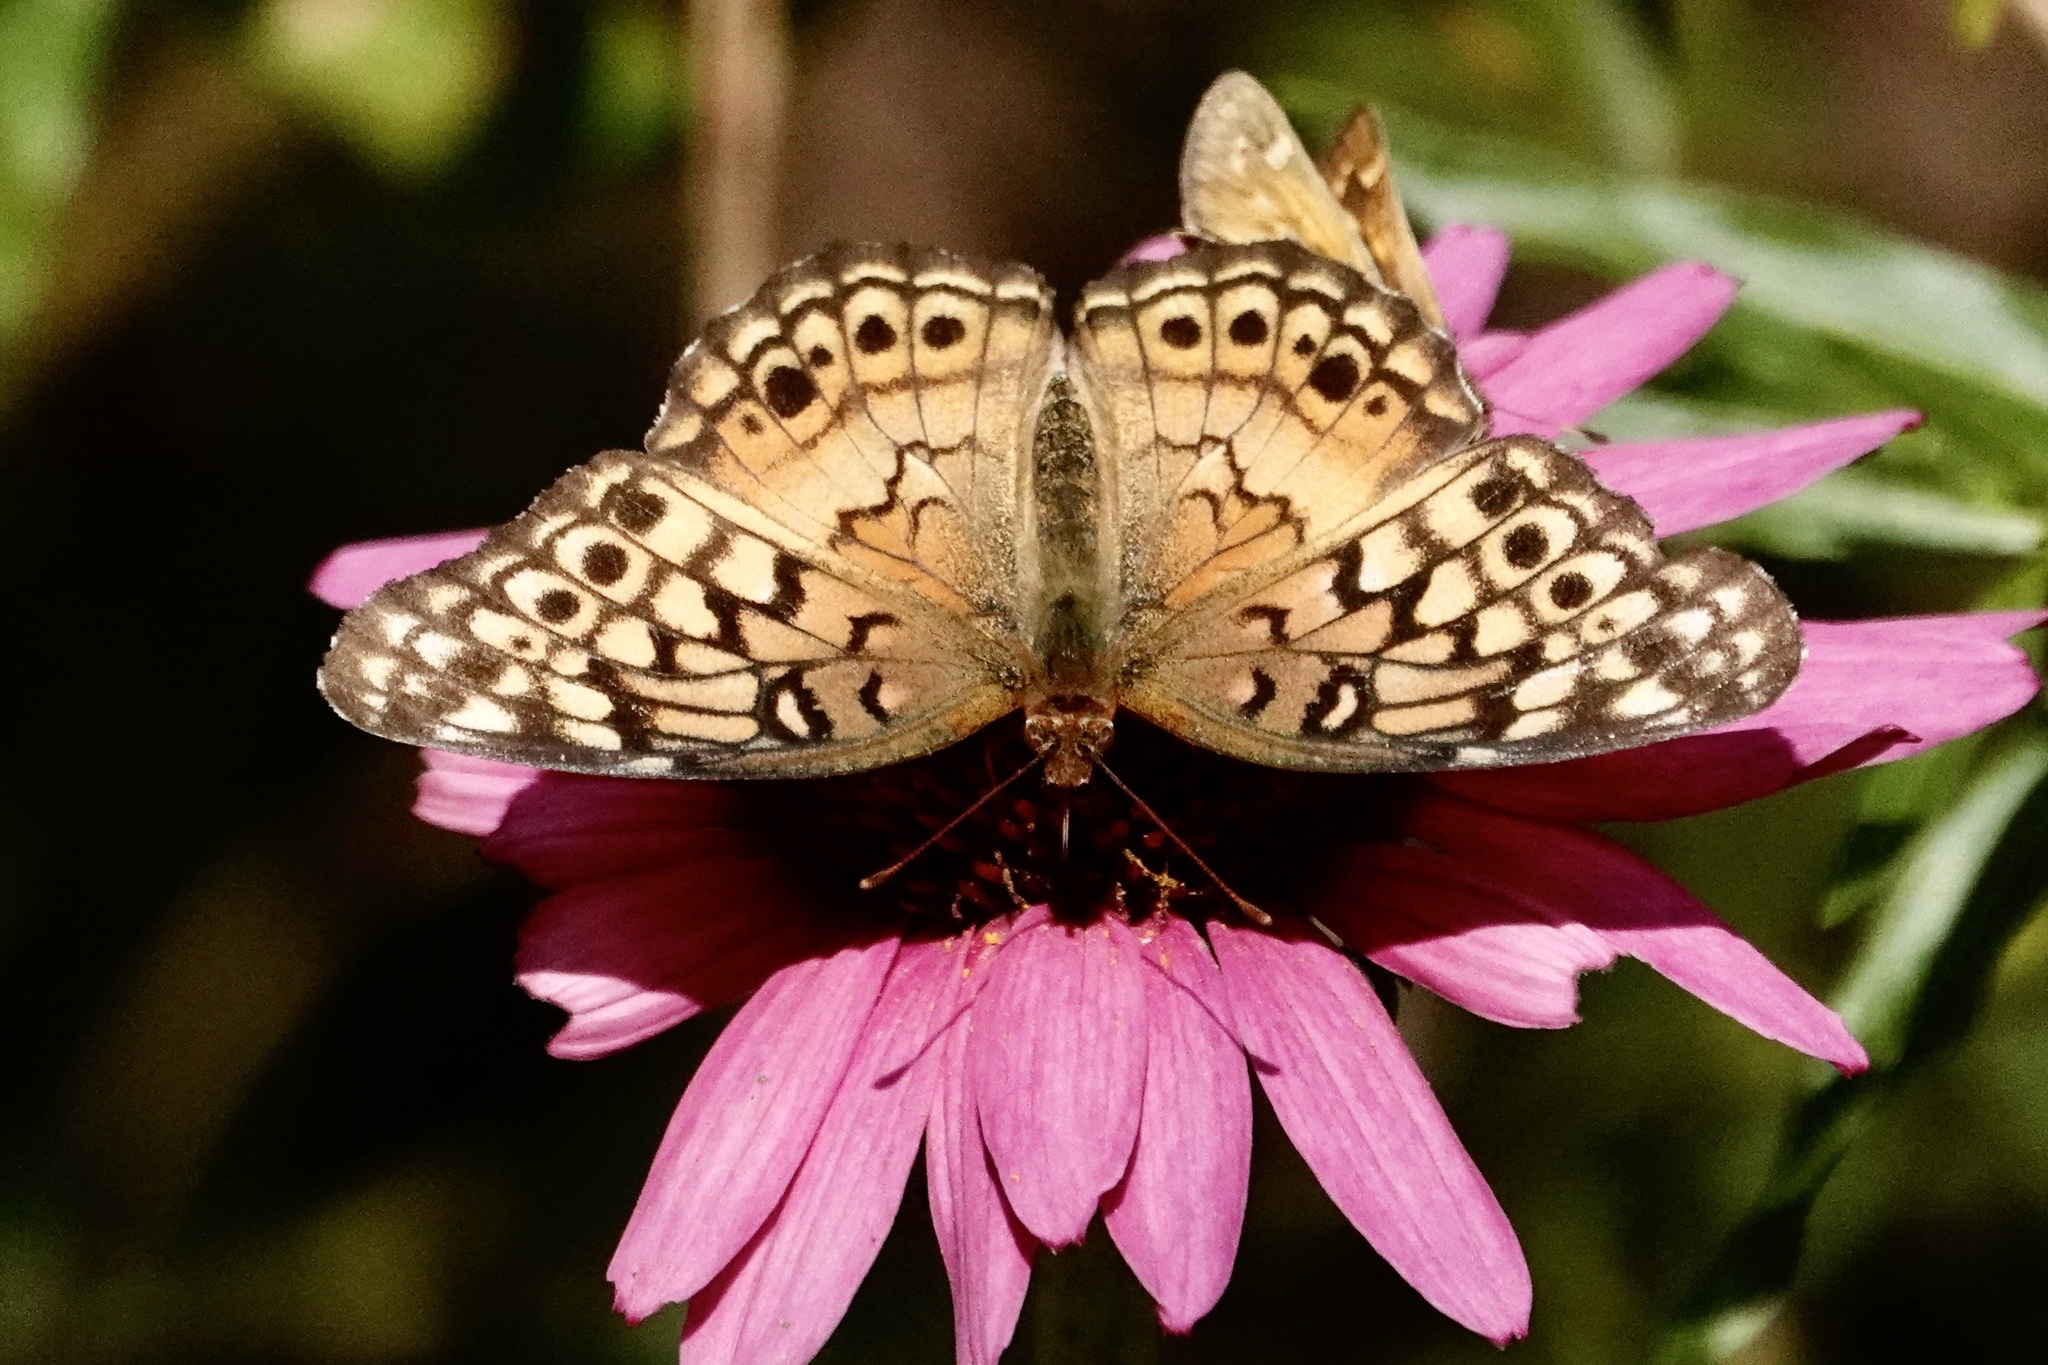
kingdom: Animalia
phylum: Arthropoda
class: Insecta
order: Lepidoptera
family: Nymphalidae
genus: Euptoieta
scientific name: Euptoieta claudia
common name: Variegated fritillary
